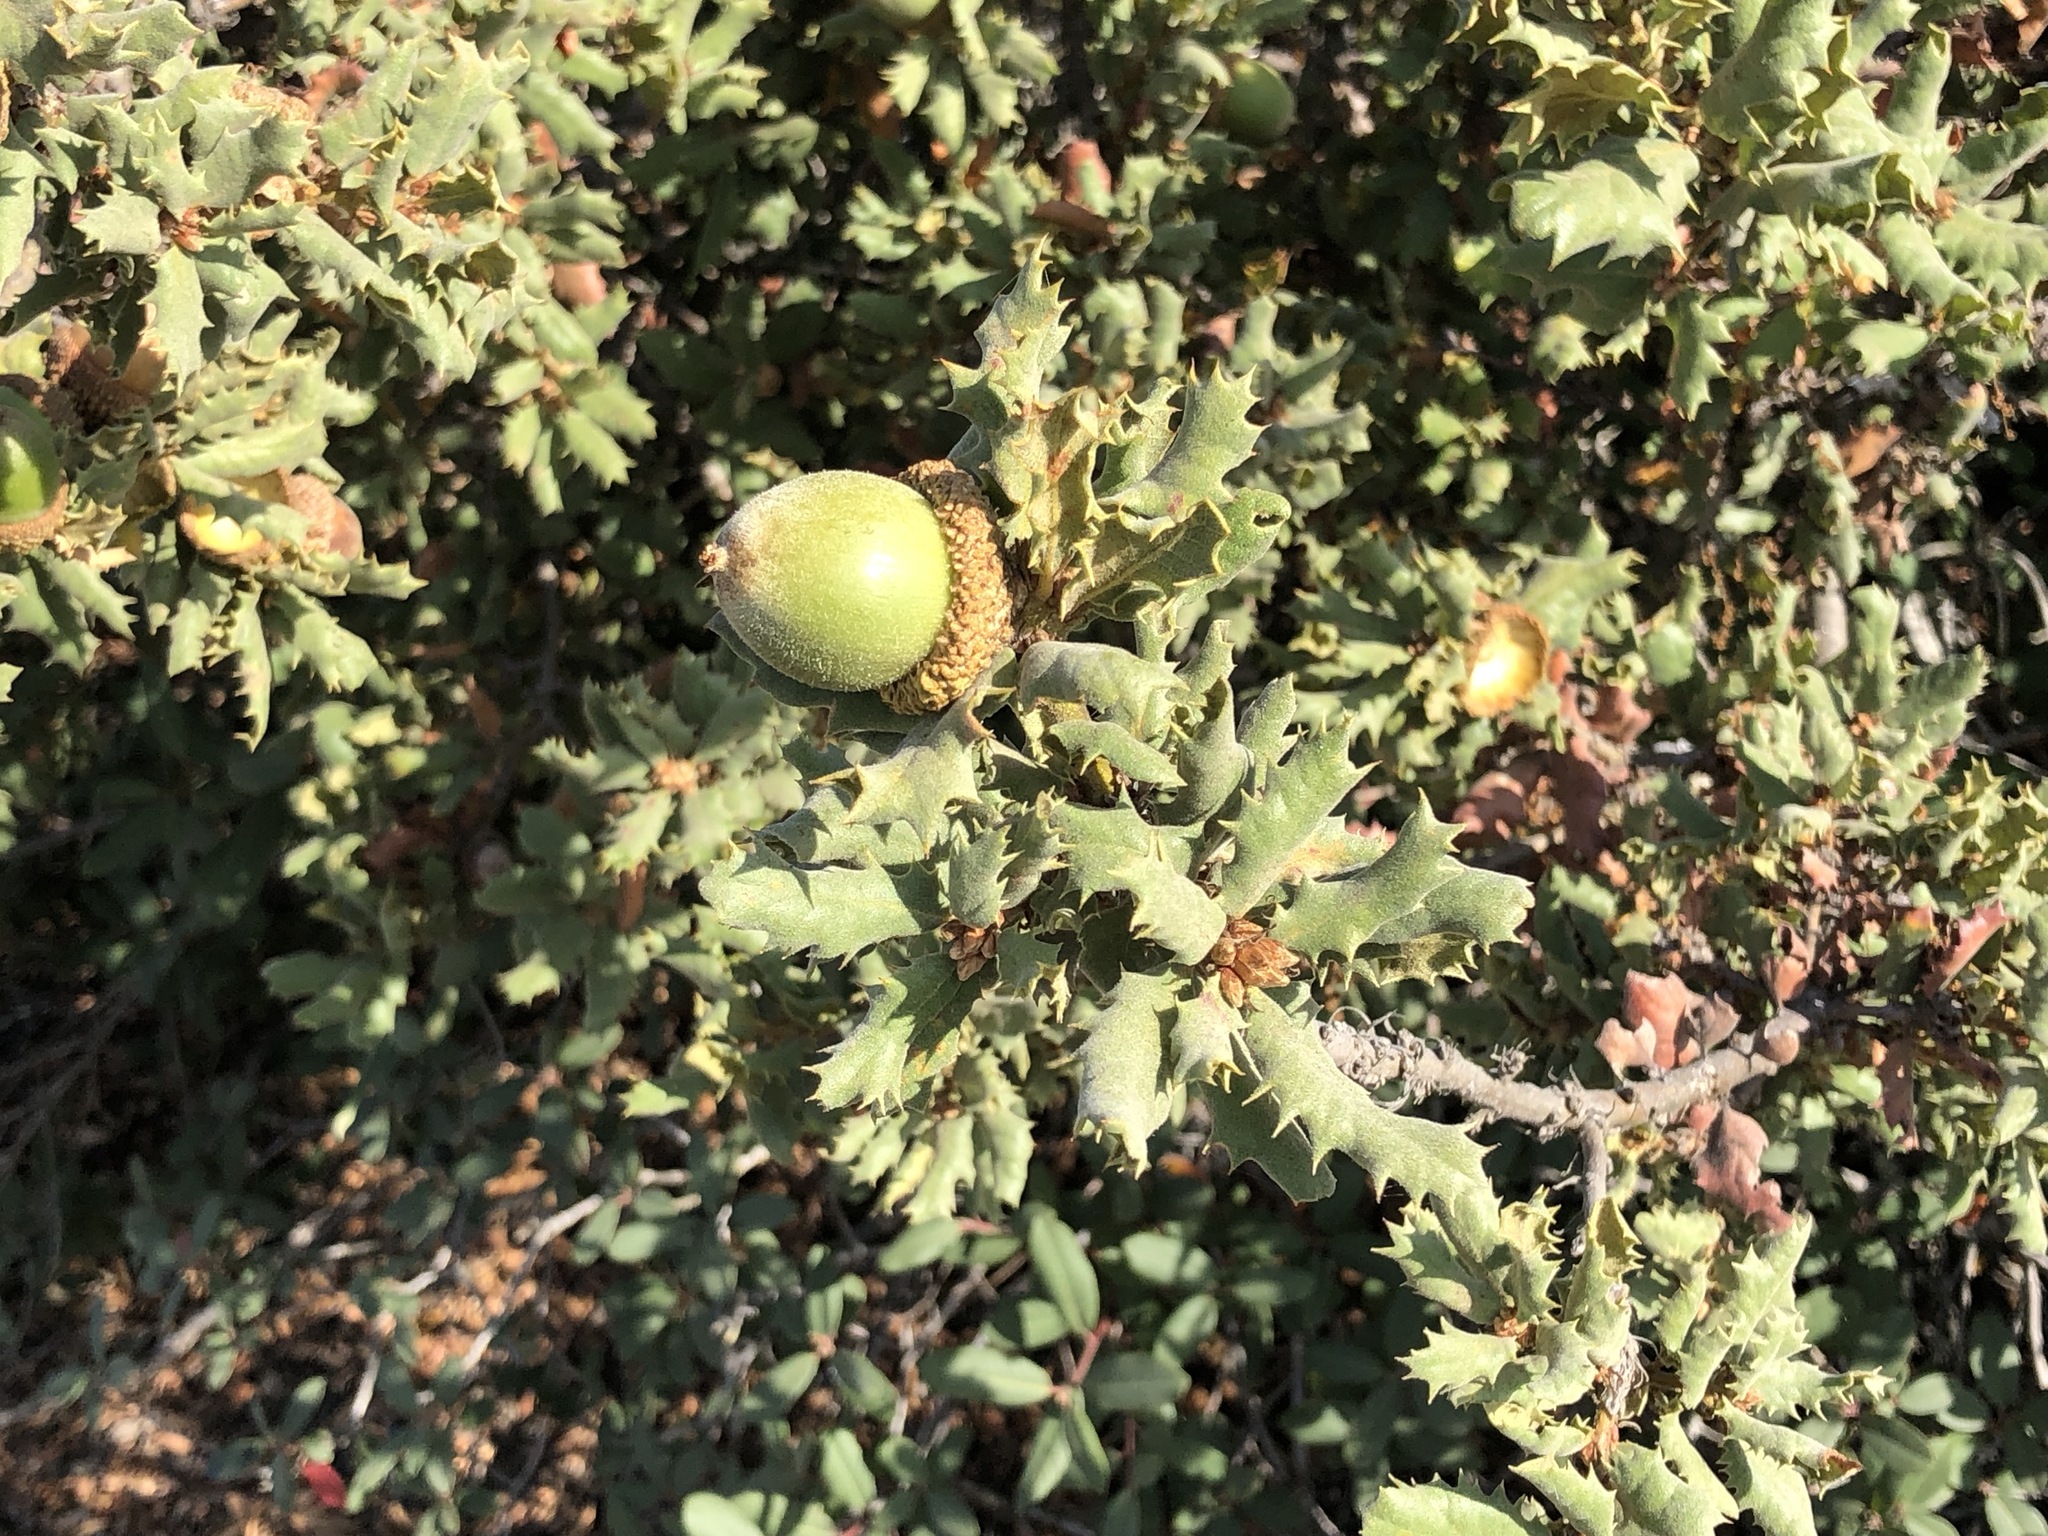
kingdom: Plantae
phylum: Tracheophyta
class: Magnoliopsida
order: Fagales
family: Fagaceae
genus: Quercus
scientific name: Quercus durata
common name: Leather oak
